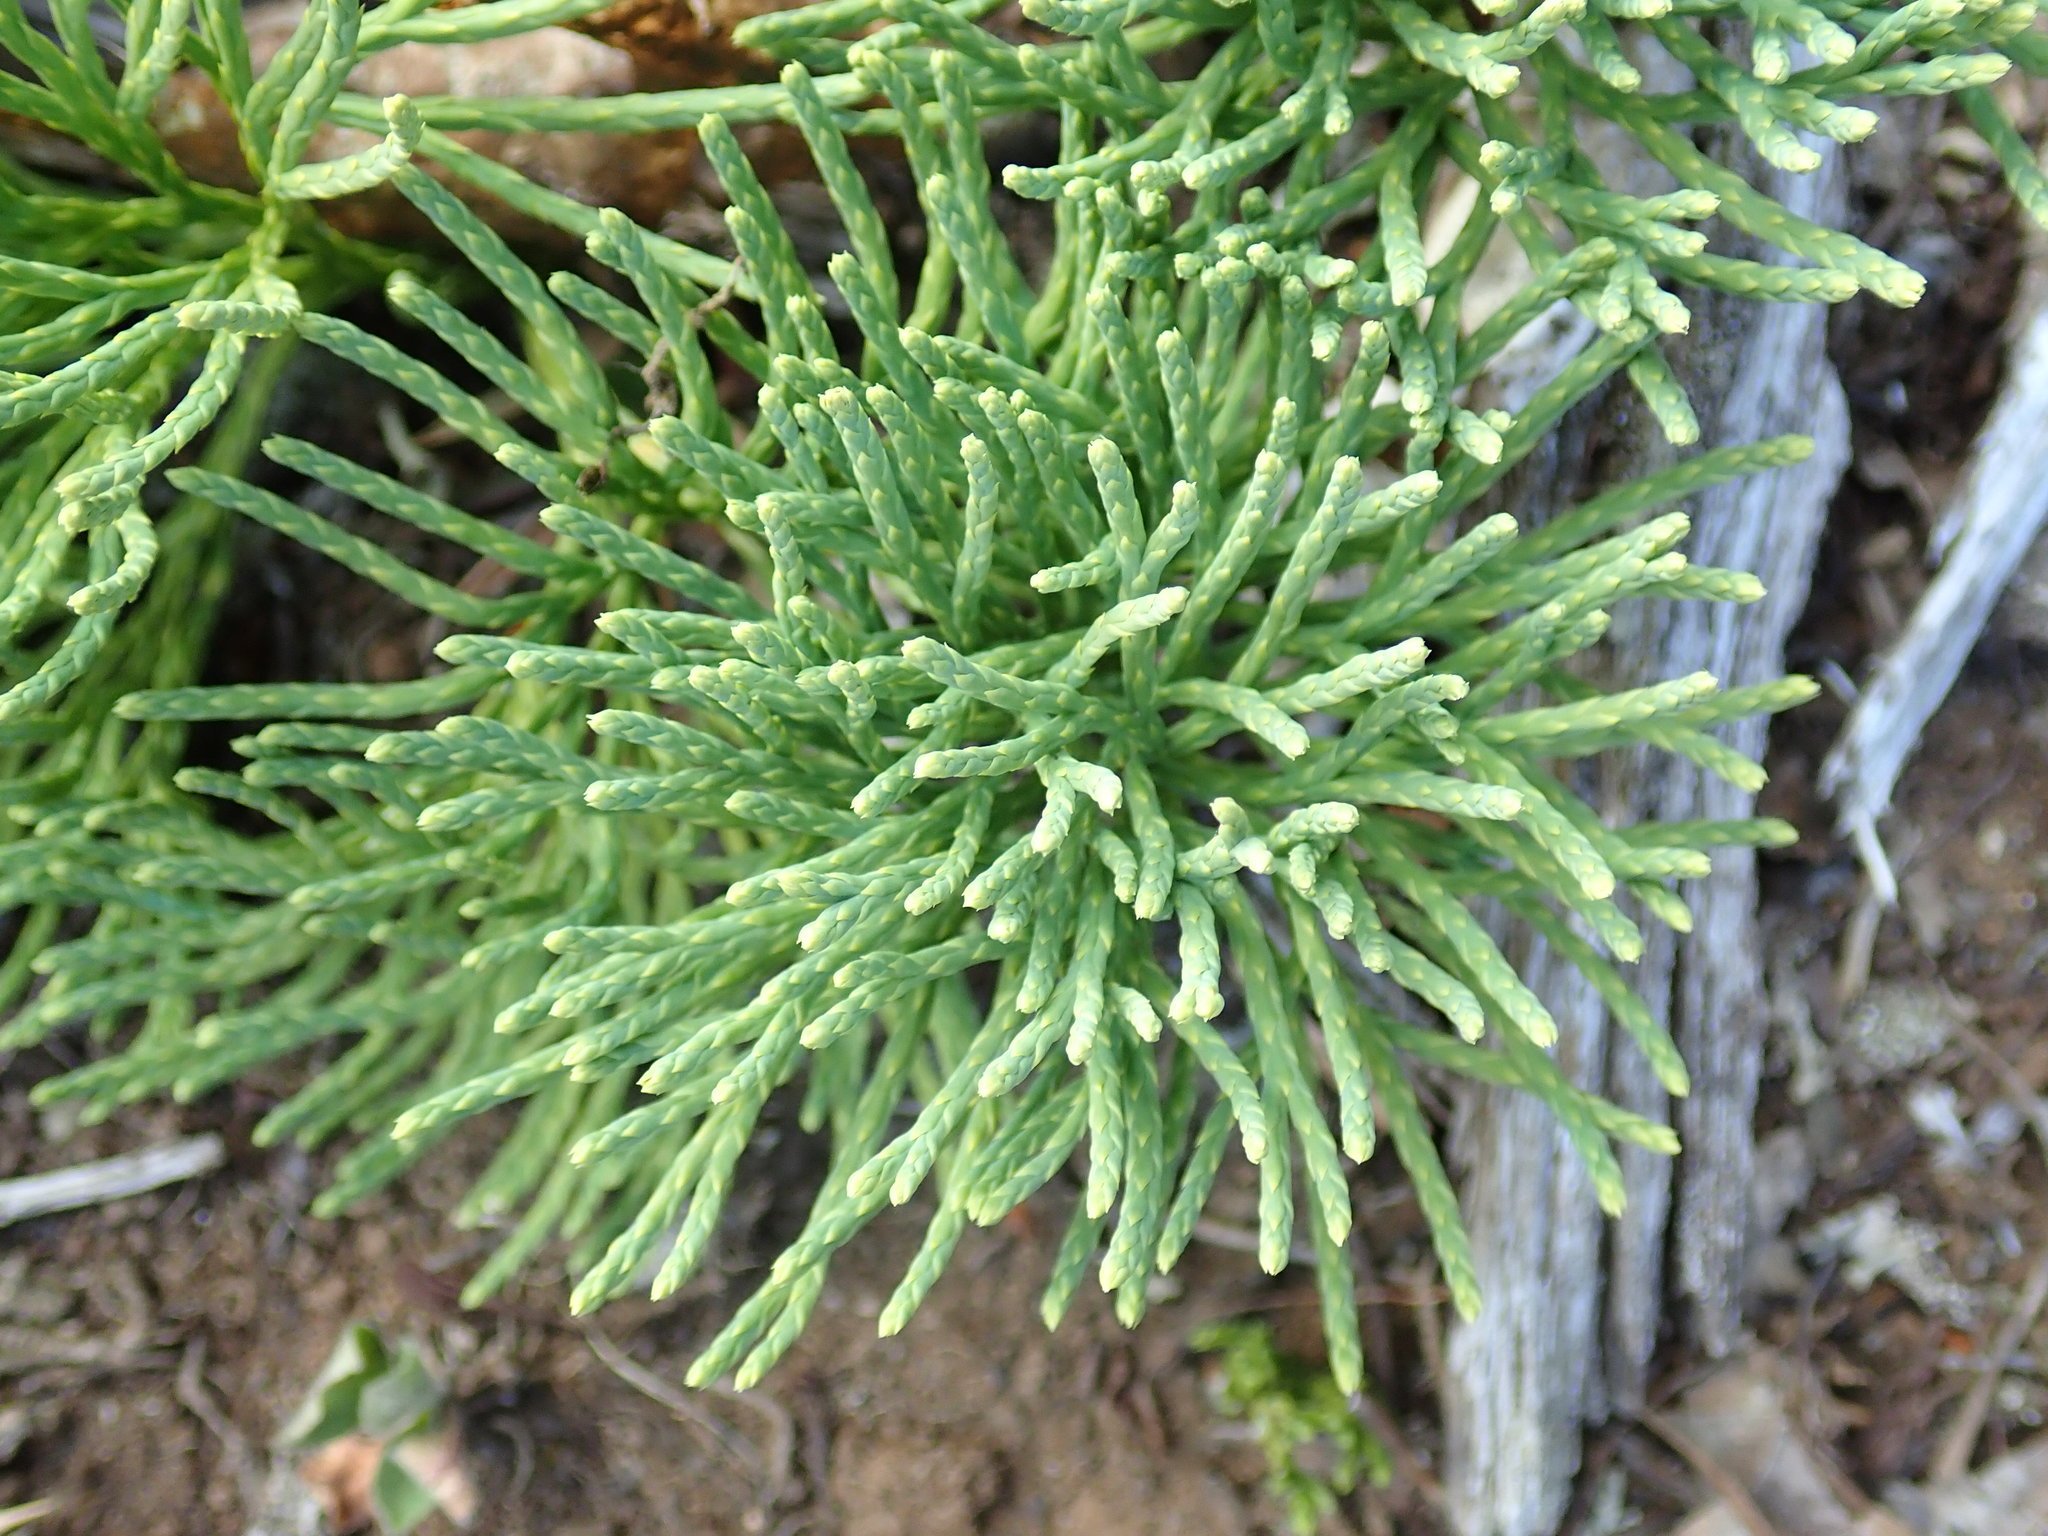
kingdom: Plantae
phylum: Tracheophyta
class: Lycopodiopsida
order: Lycopodiales
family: Lycopodiaceae
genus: Diphasiastrum
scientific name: Diphasiastrum tristachyum
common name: Blue ground-cedar
